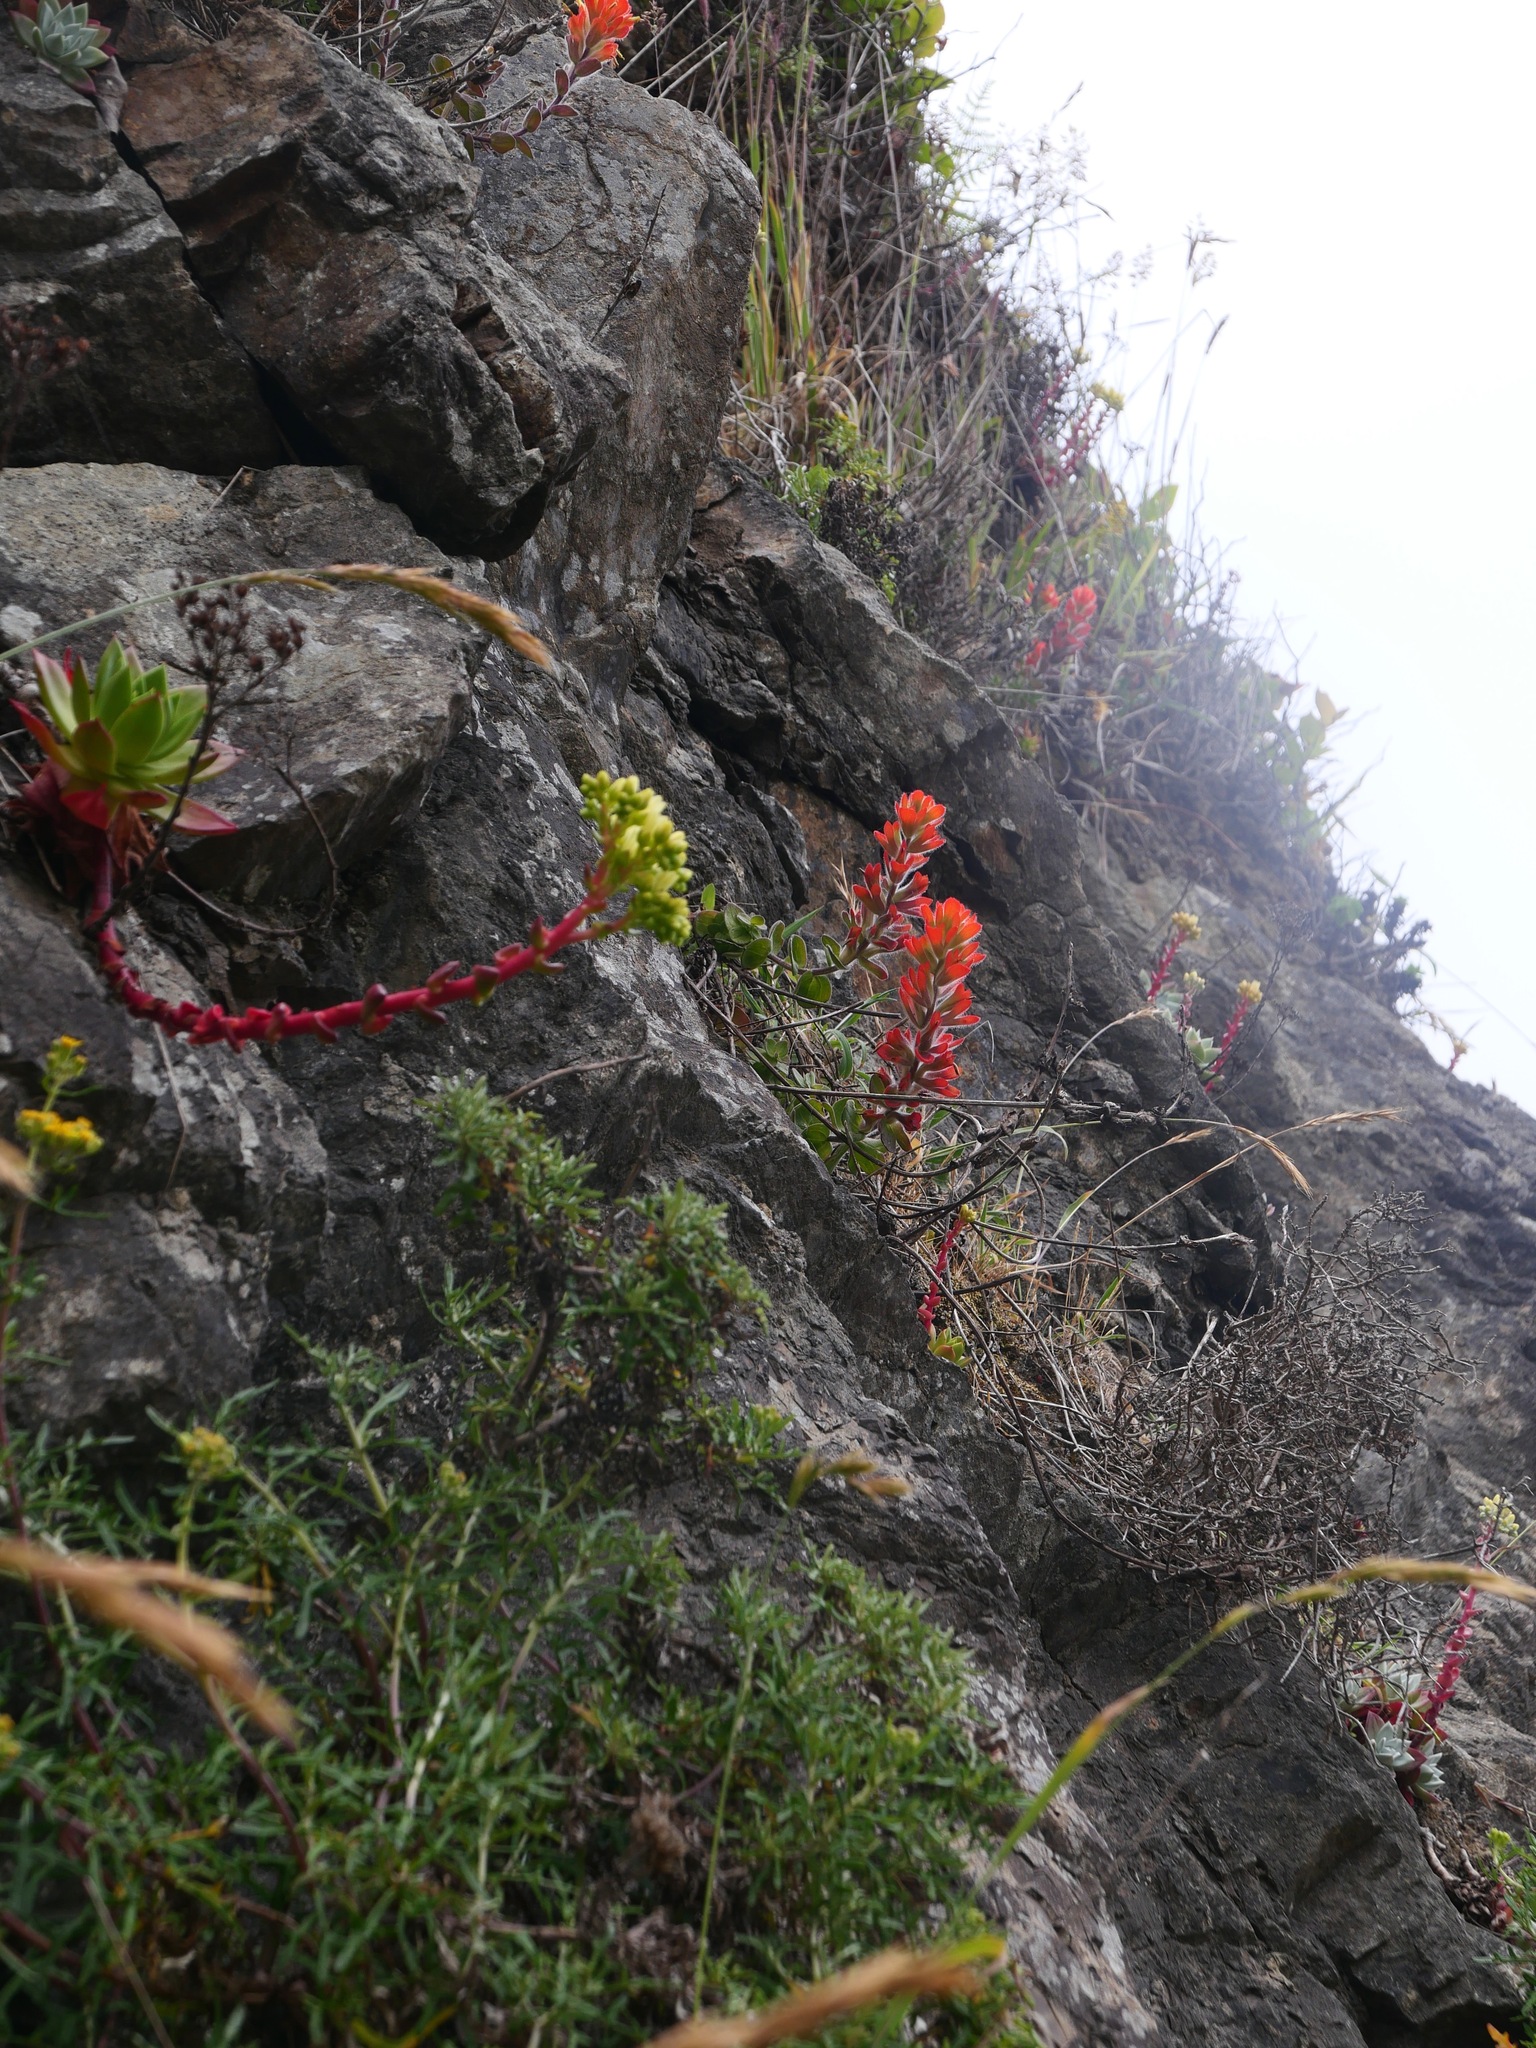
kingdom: Plantae
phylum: Tracheophyta
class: Magnoliopsida
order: Lamiales
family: Orobanchaceae
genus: Castilleja
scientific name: Castilleja mendocinensis
